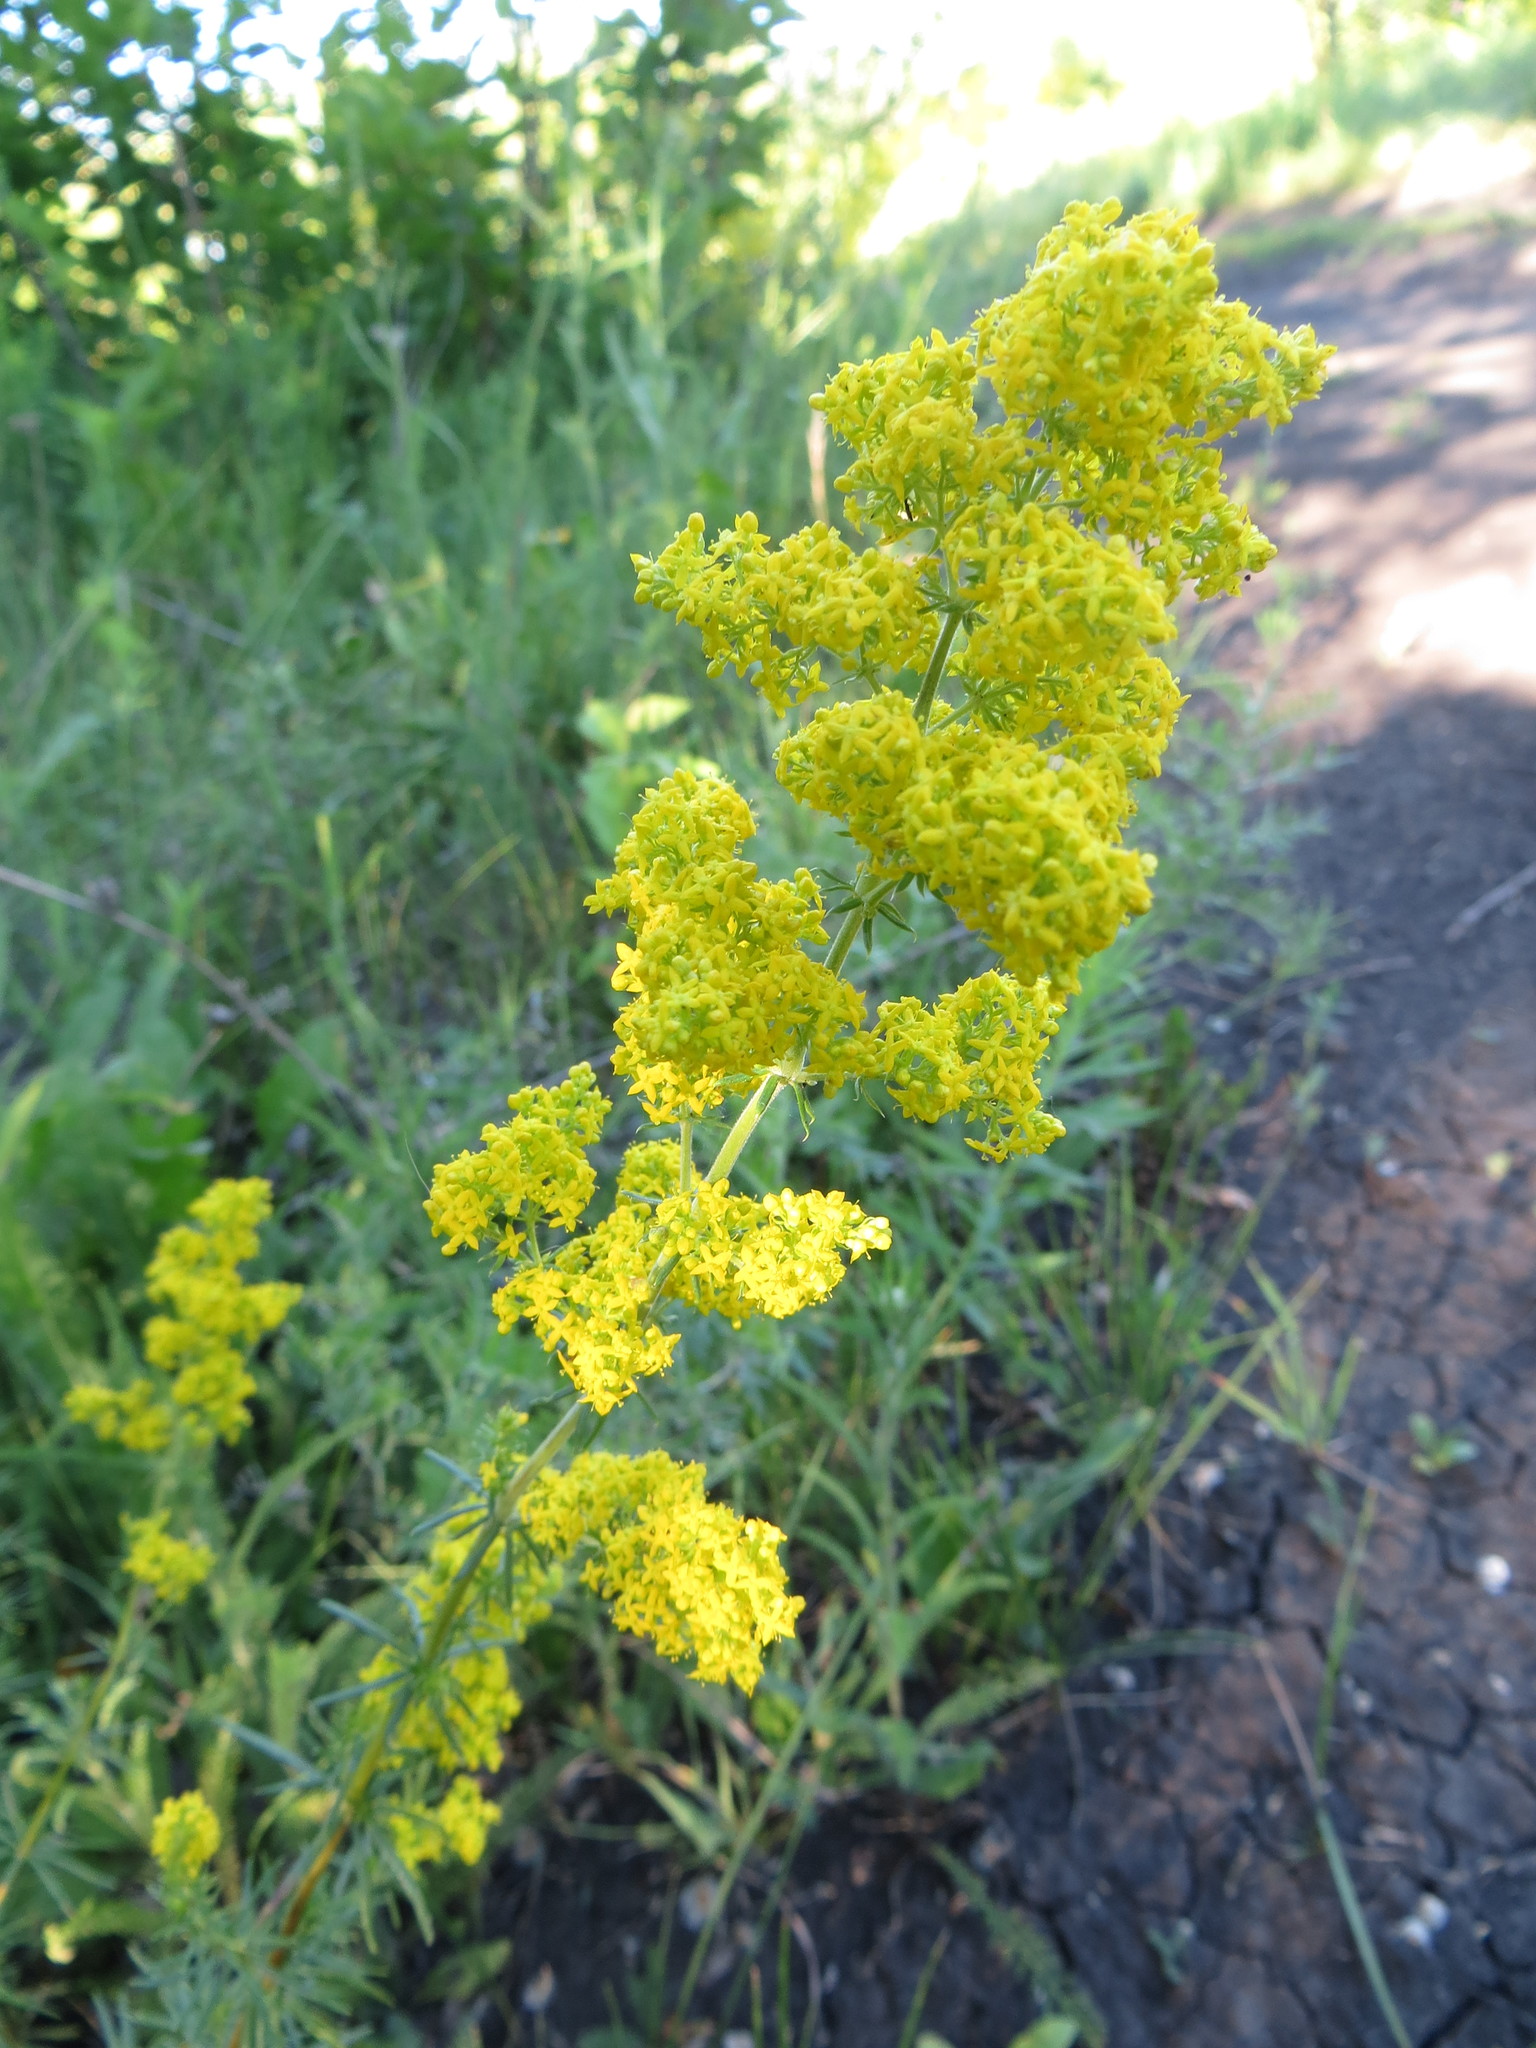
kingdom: Plantae
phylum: Tracheophyta
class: Magnoliopsida
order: Gentianales
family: Rubiaceae
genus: Galium
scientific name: Galium verum
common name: Lady's bedstraw
